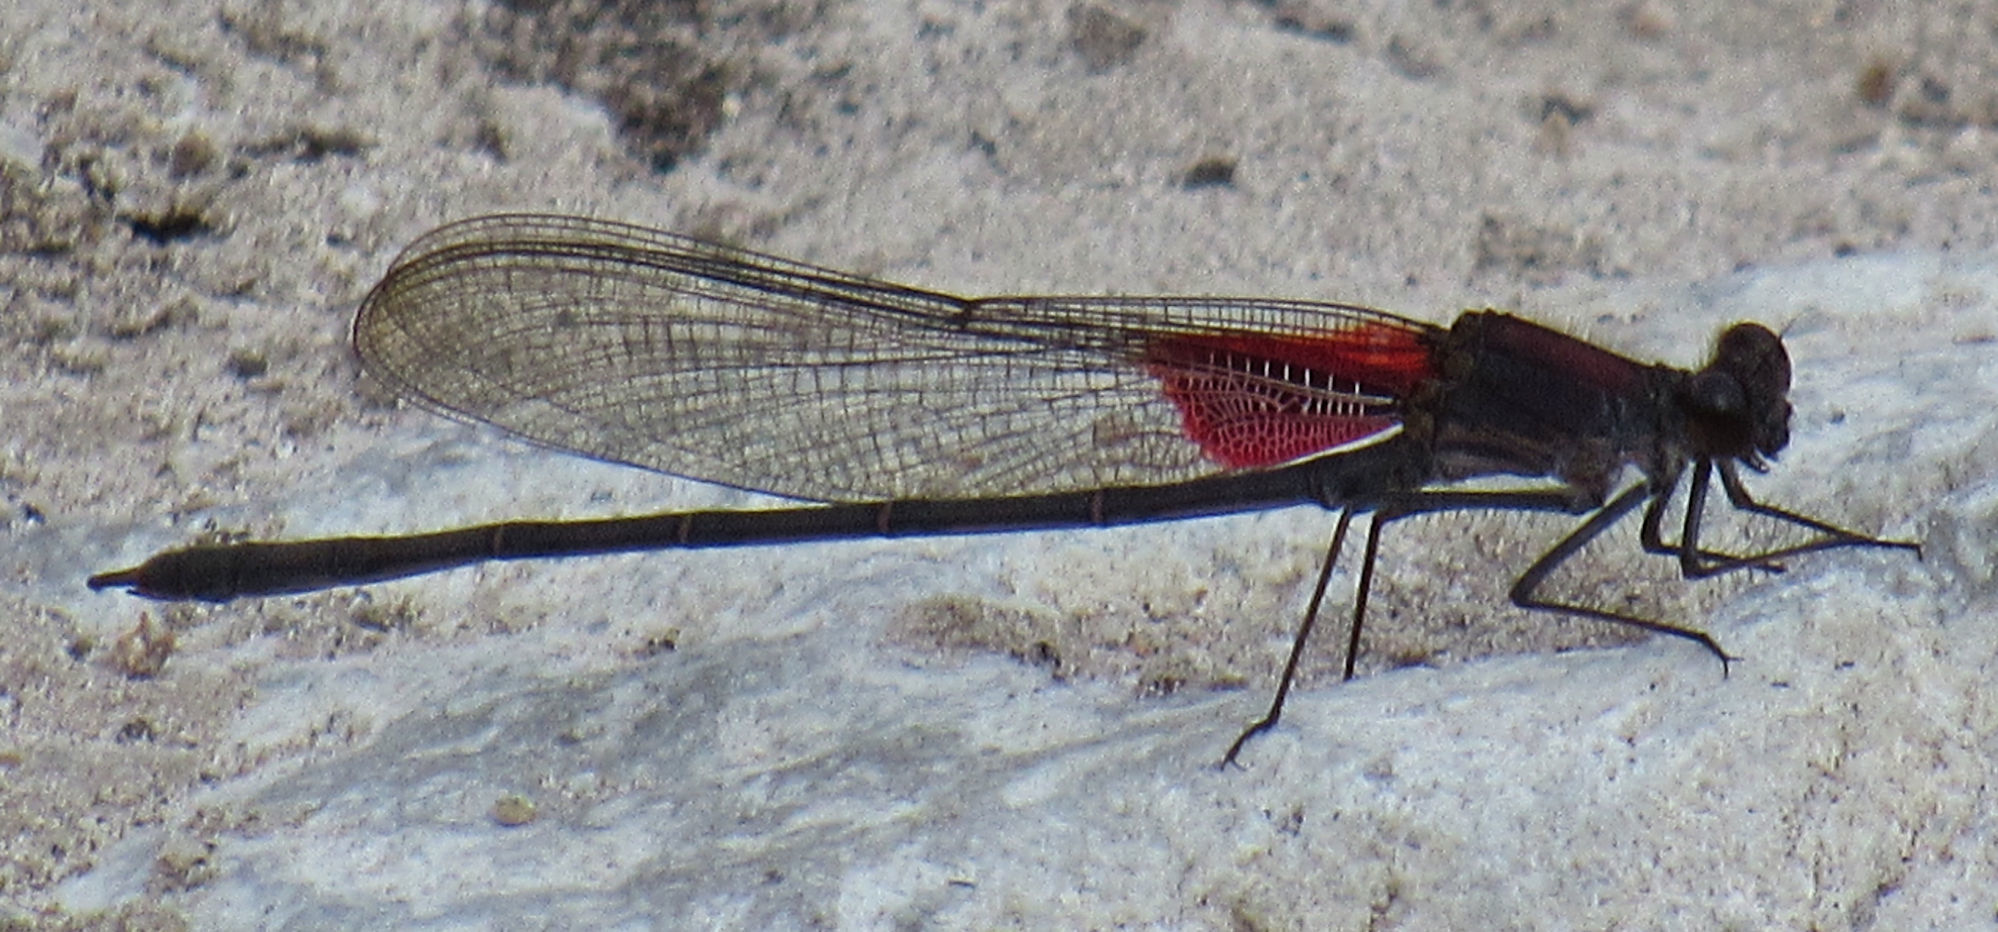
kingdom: Animalia
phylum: Arthropoda
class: Insecta
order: Odonata
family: Calopterygidae
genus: Hetaerina
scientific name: Hetaerina vulnerata
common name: Canyon rubyspot
